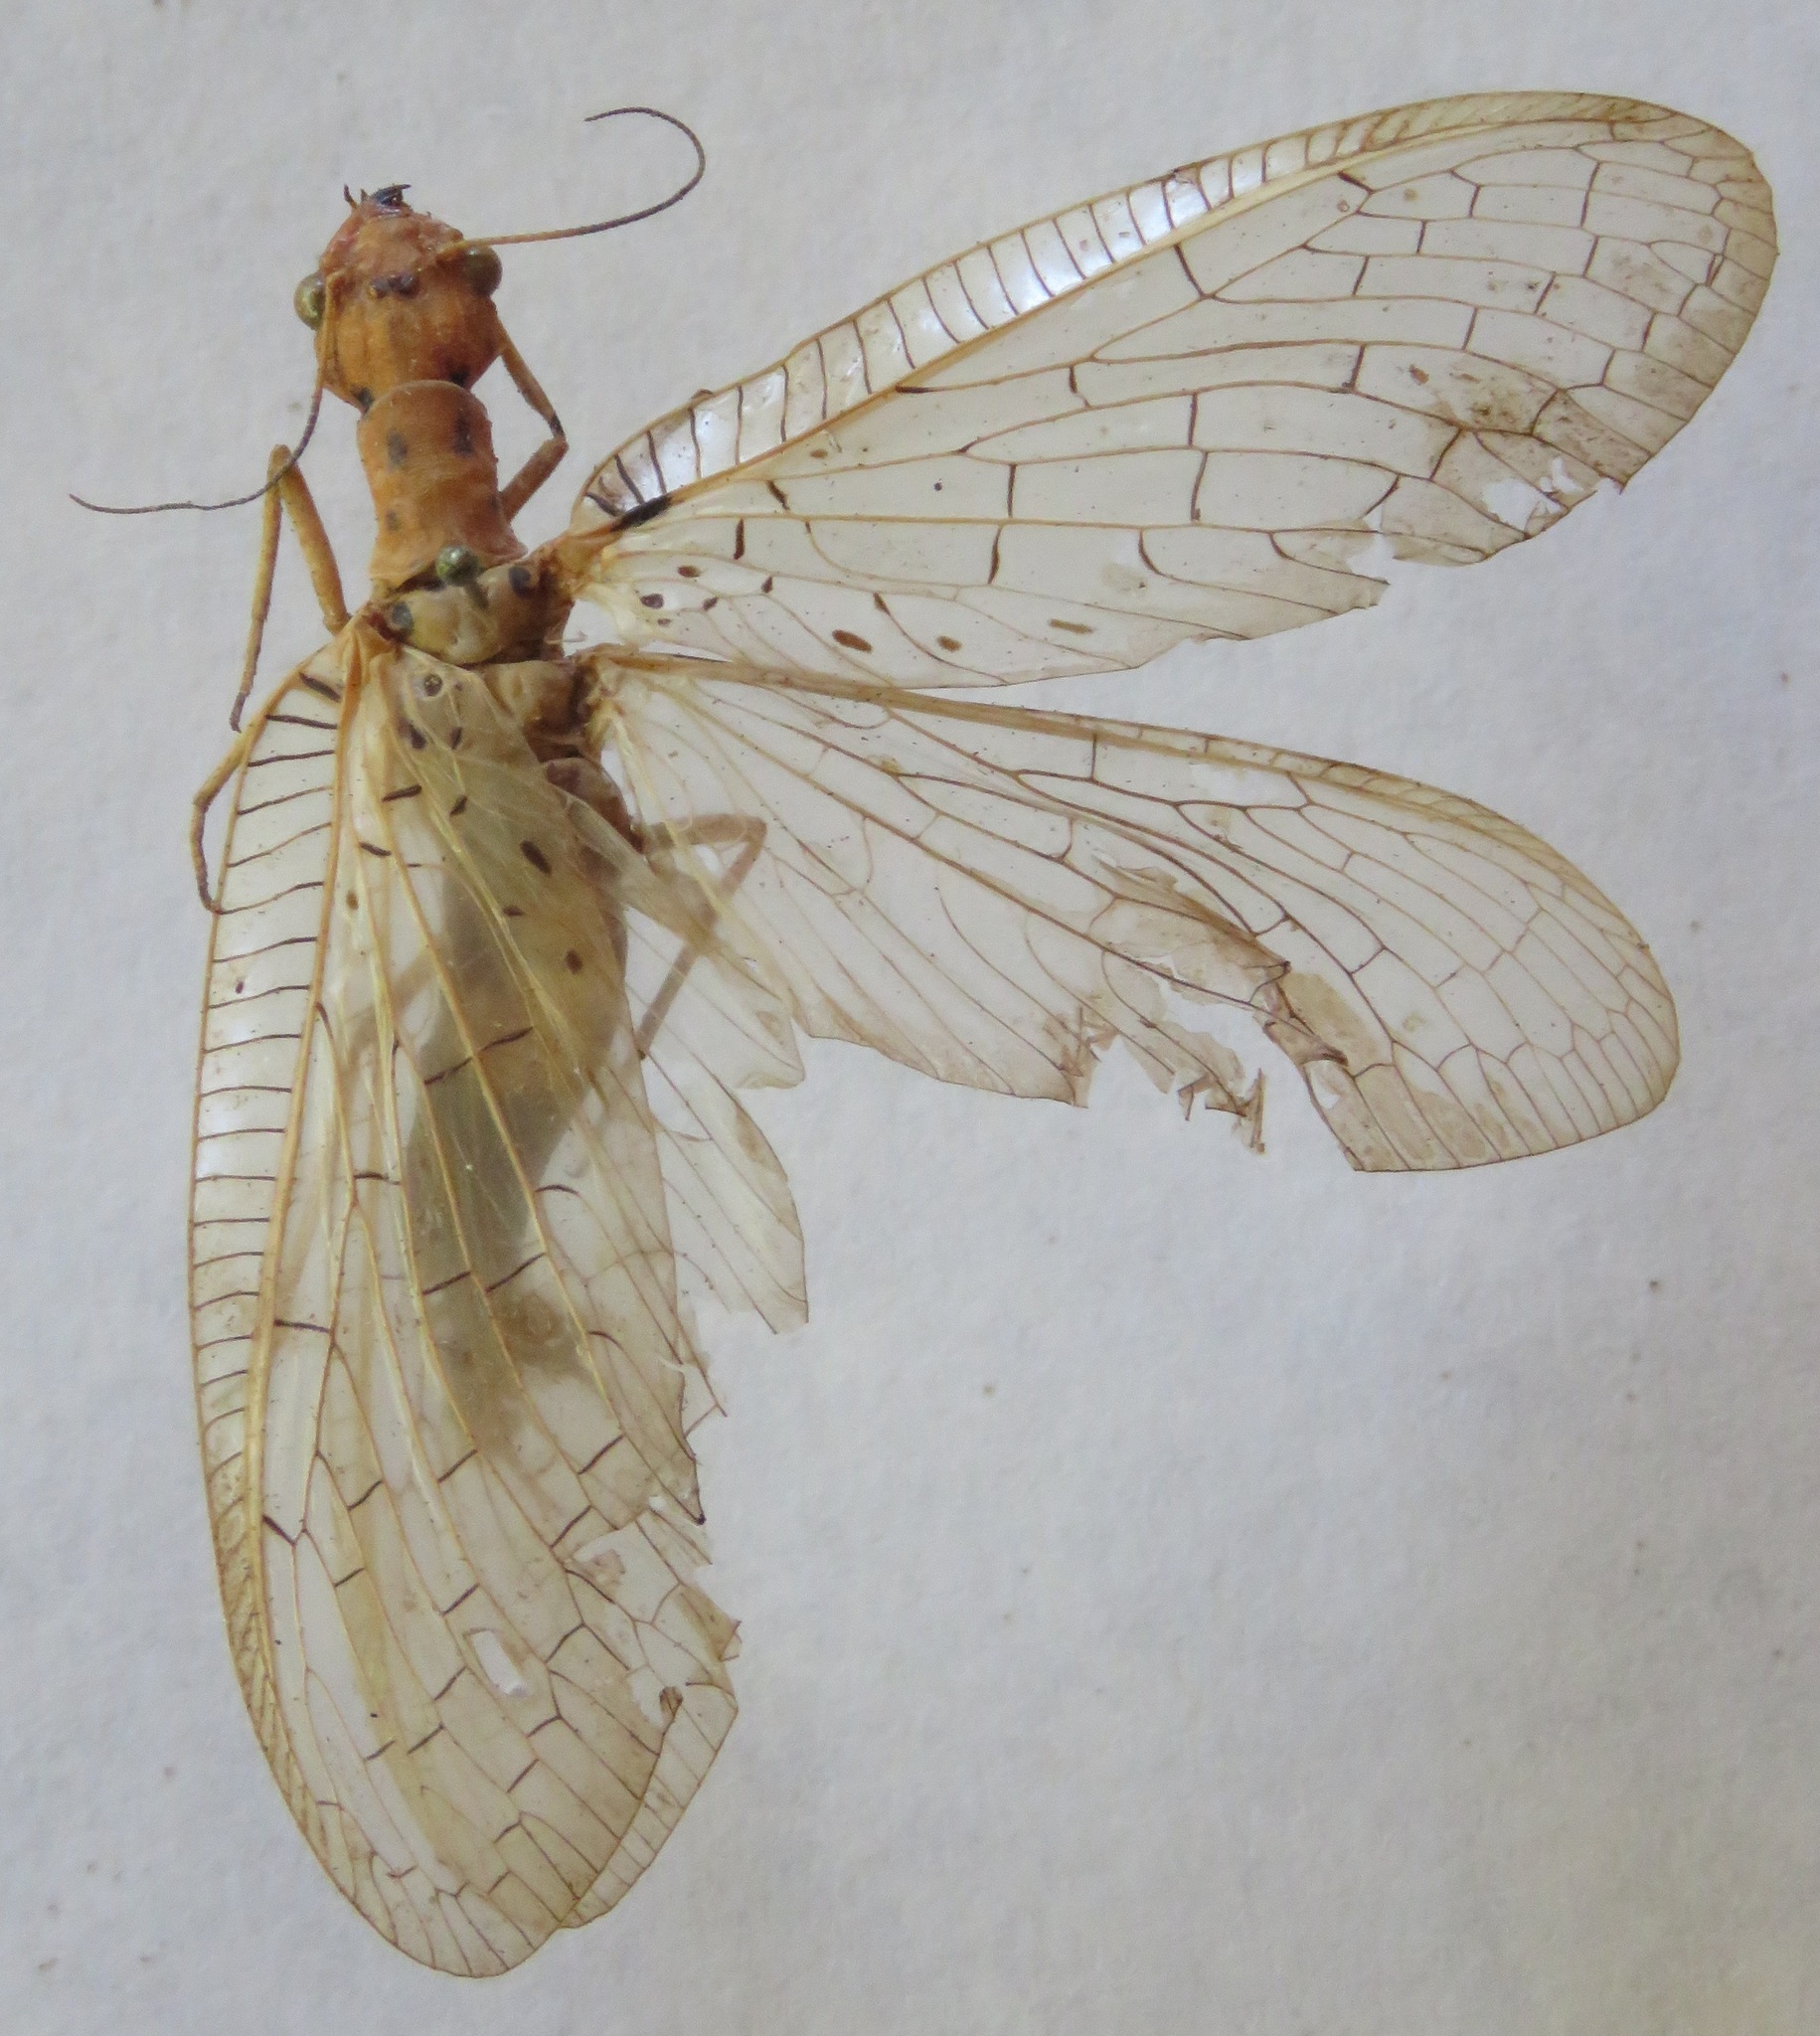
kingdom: Animalia
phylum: Arthropoda
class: Insecta
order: Megaloptera
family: Corydalidae
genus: Chloronia
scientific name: Chloronia mexicana
